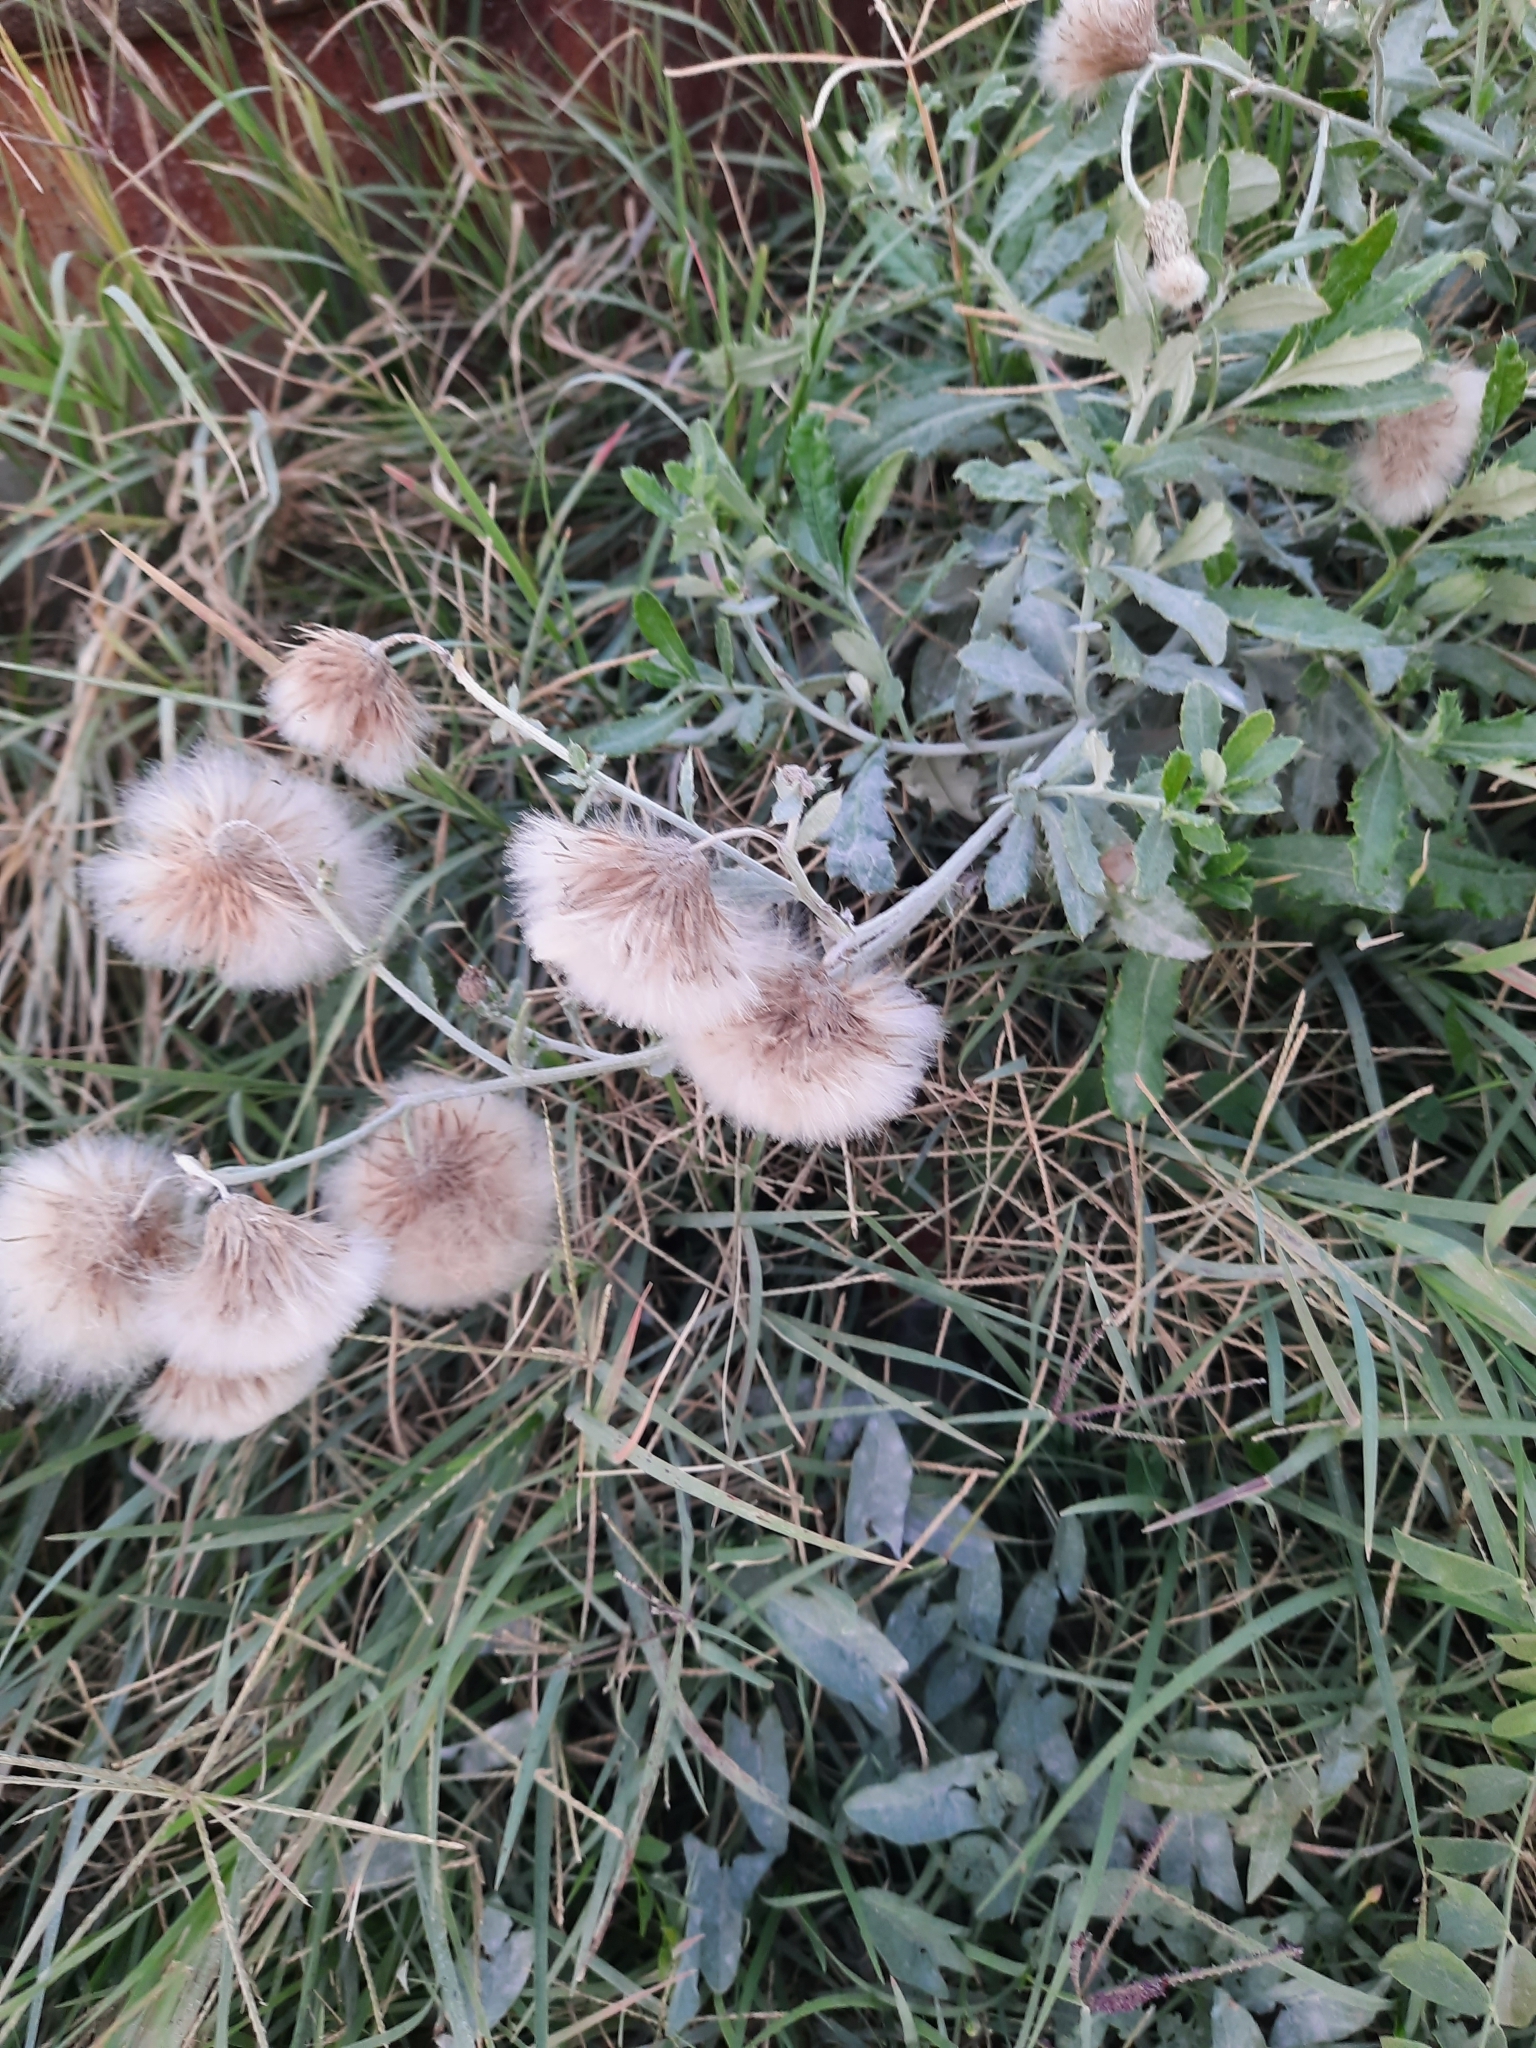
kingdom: Plantae
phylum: Tracheophyta
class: Magnoliopsida
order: Asterales
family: Asteraceae
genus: Cirsium
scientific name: Cirsium arvense
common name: Creeping thistle
